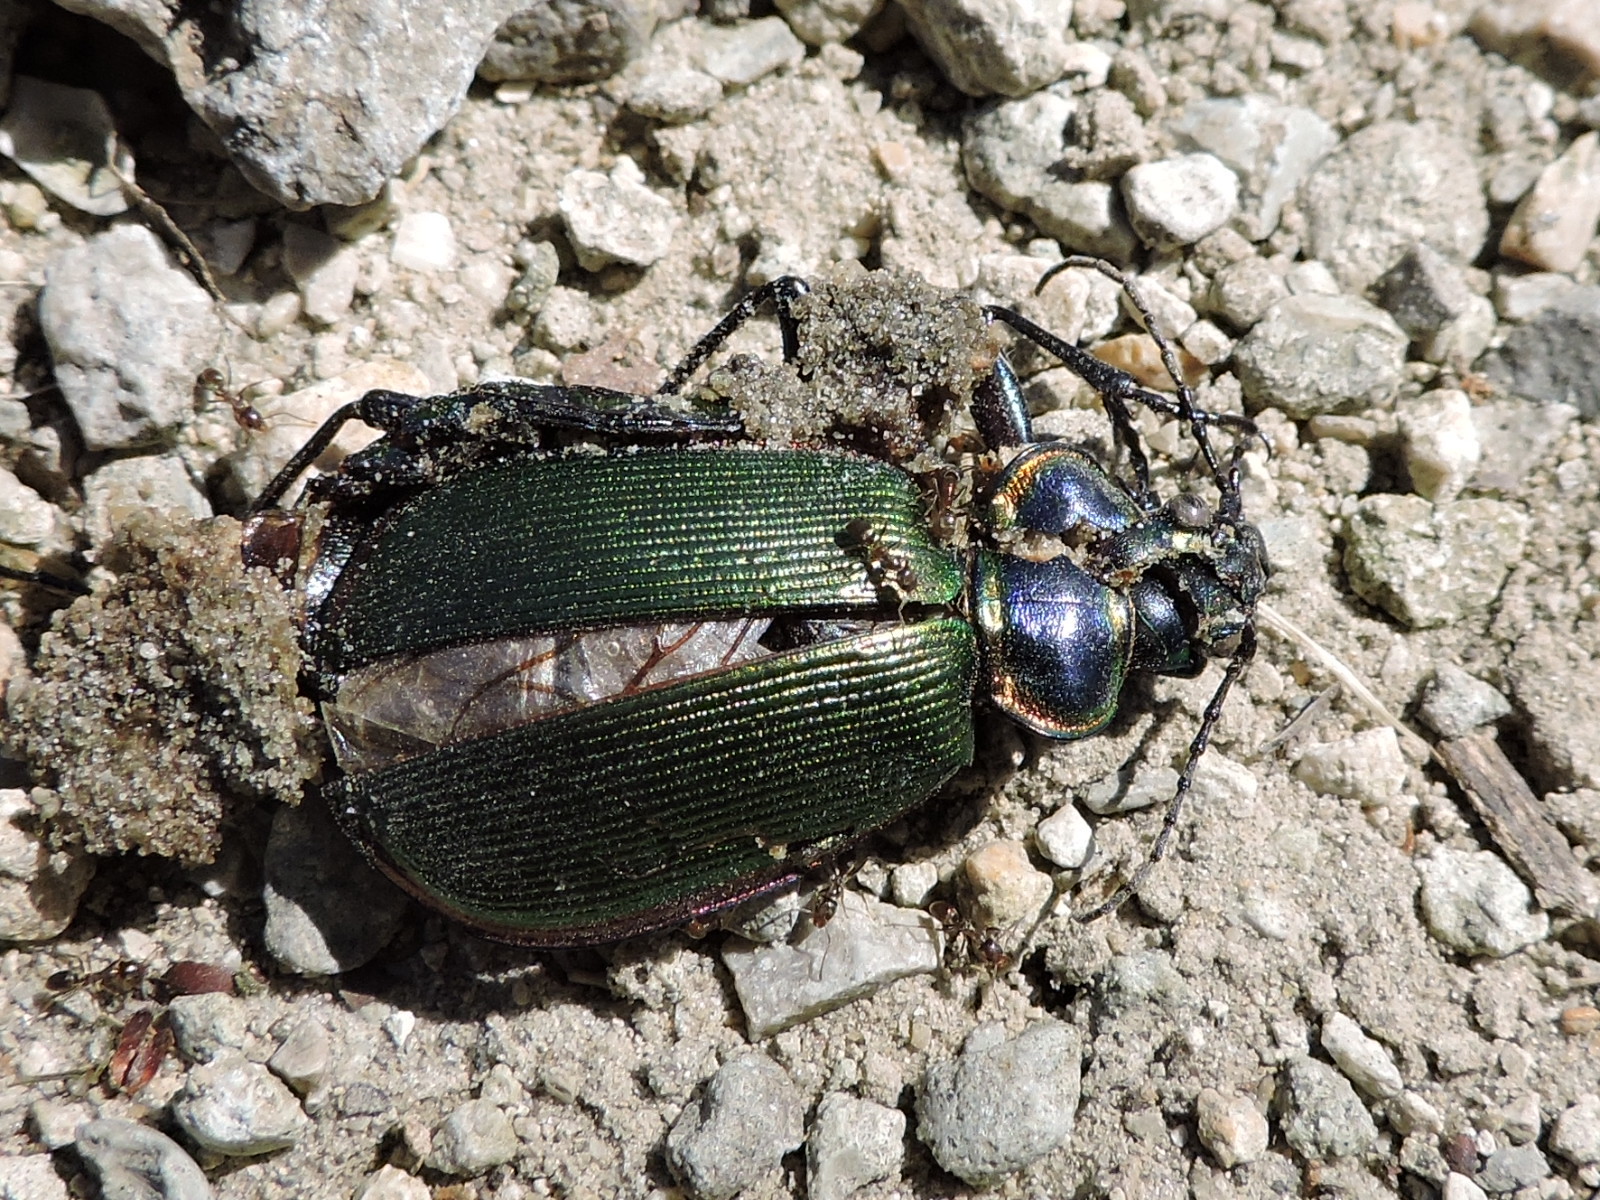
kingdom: Animalia
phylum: Arthropoda
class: Insecta
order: Coleoptera
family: Carabidae
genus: Calosoma
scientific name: Calosoma scrutator
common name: Fiery searcher beetle
